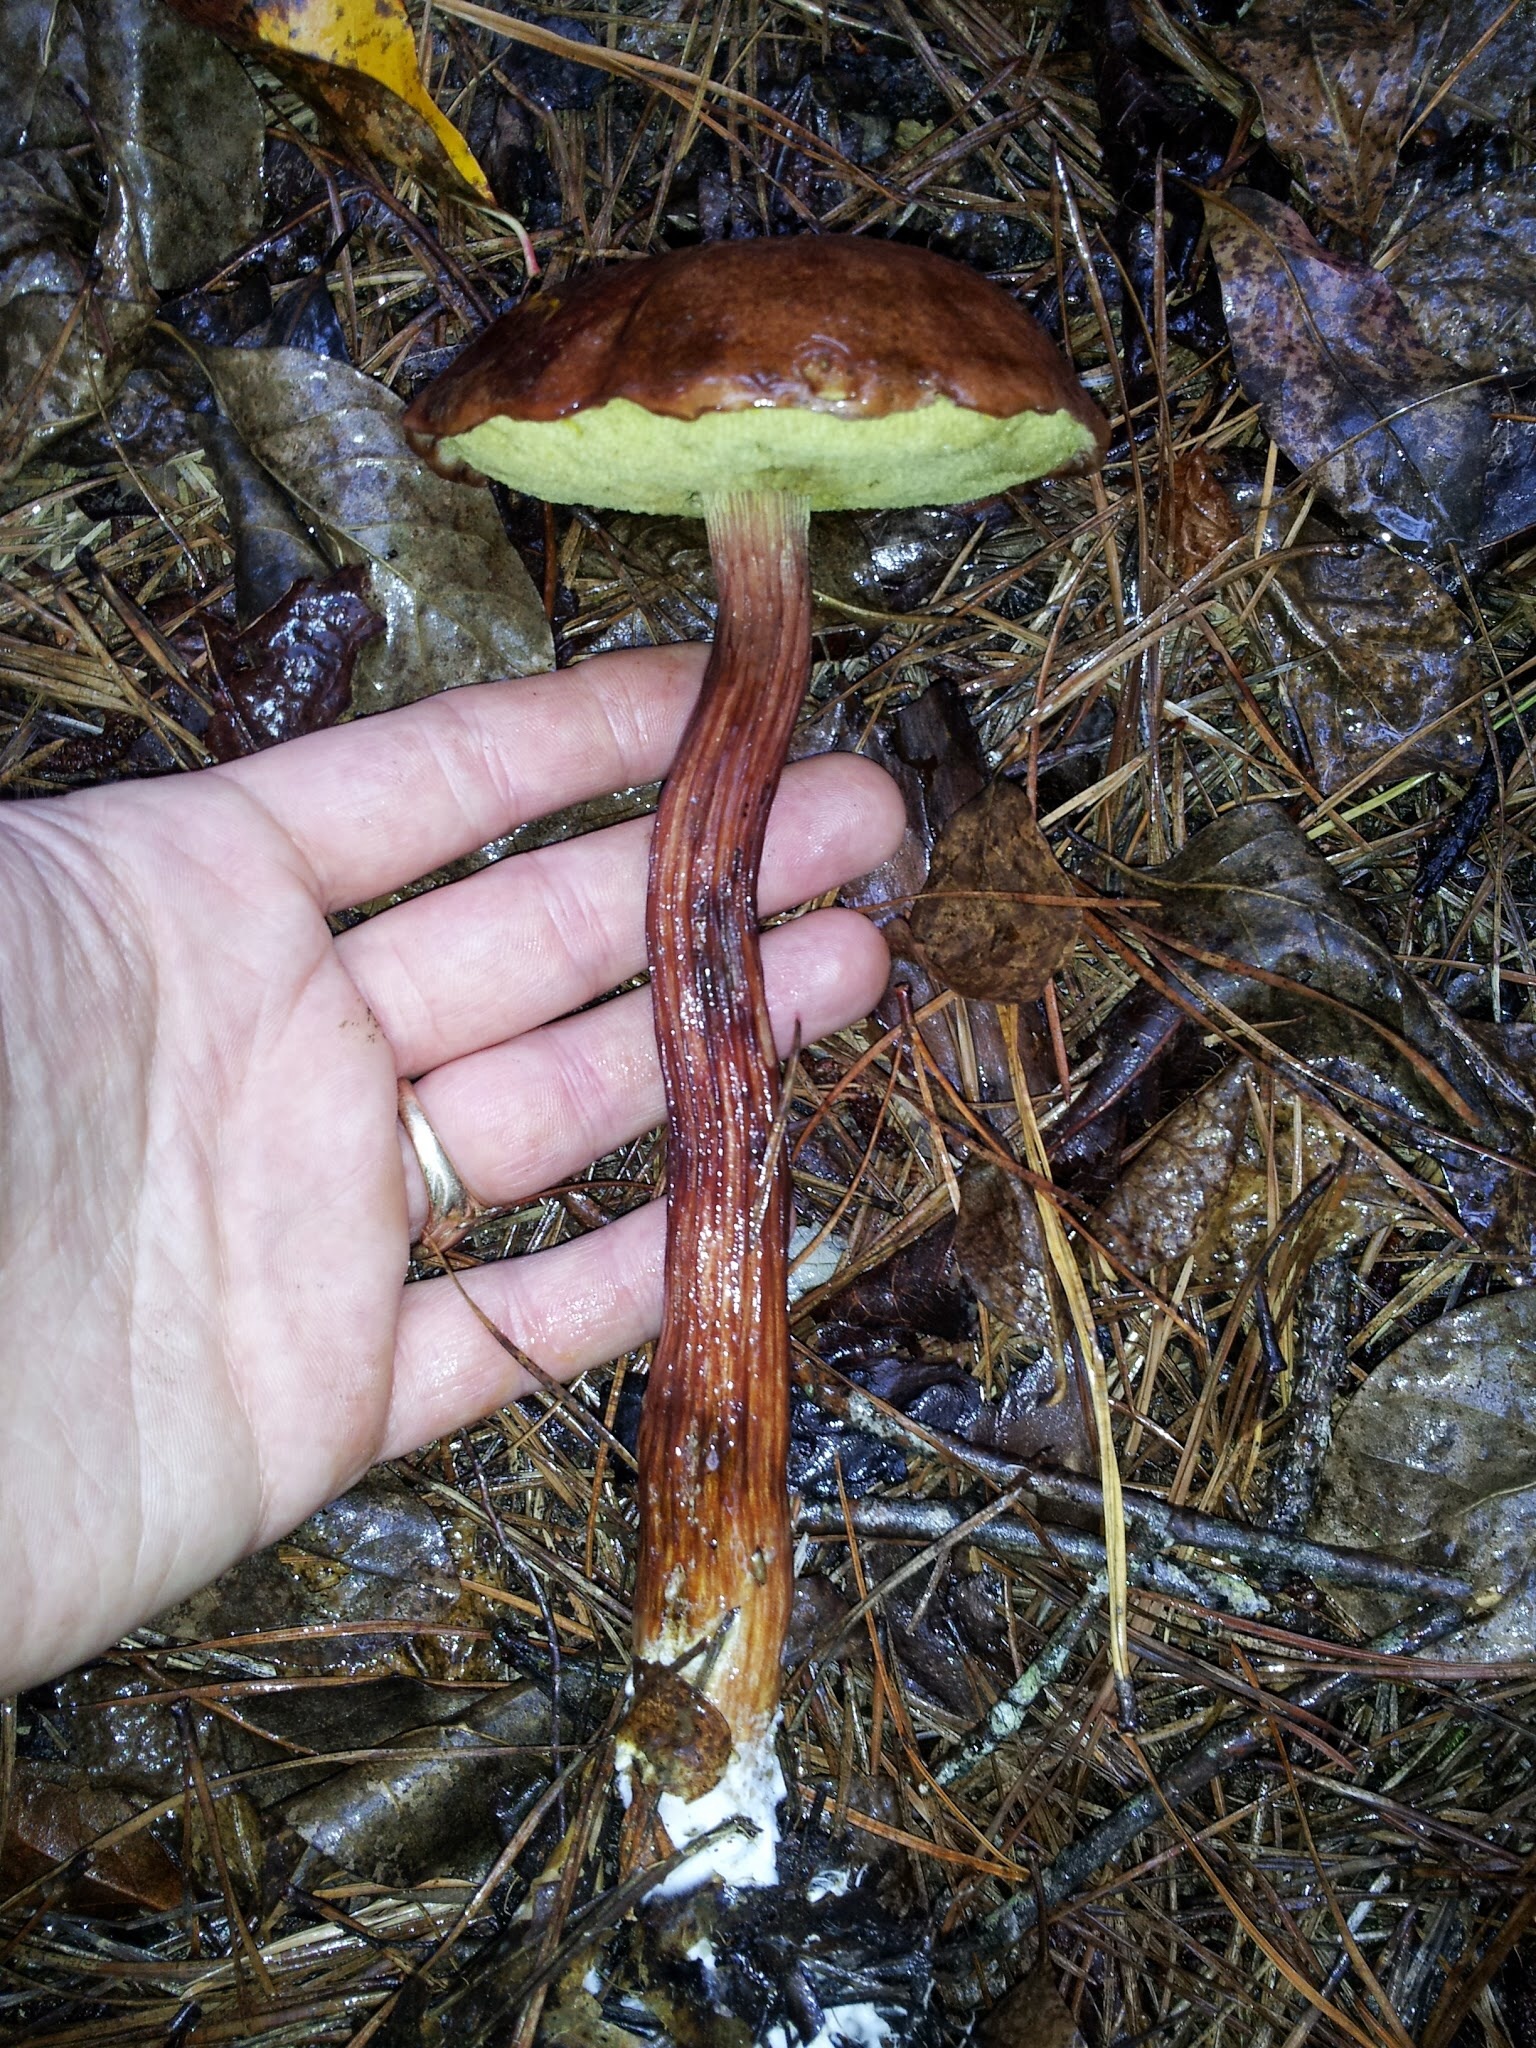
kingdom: Fungi
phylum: Basidiomycota
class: Agaricomycetes
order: Boletales
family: Boletaceae
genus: Aureoboletus
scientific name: Aureoboletus projectellus
